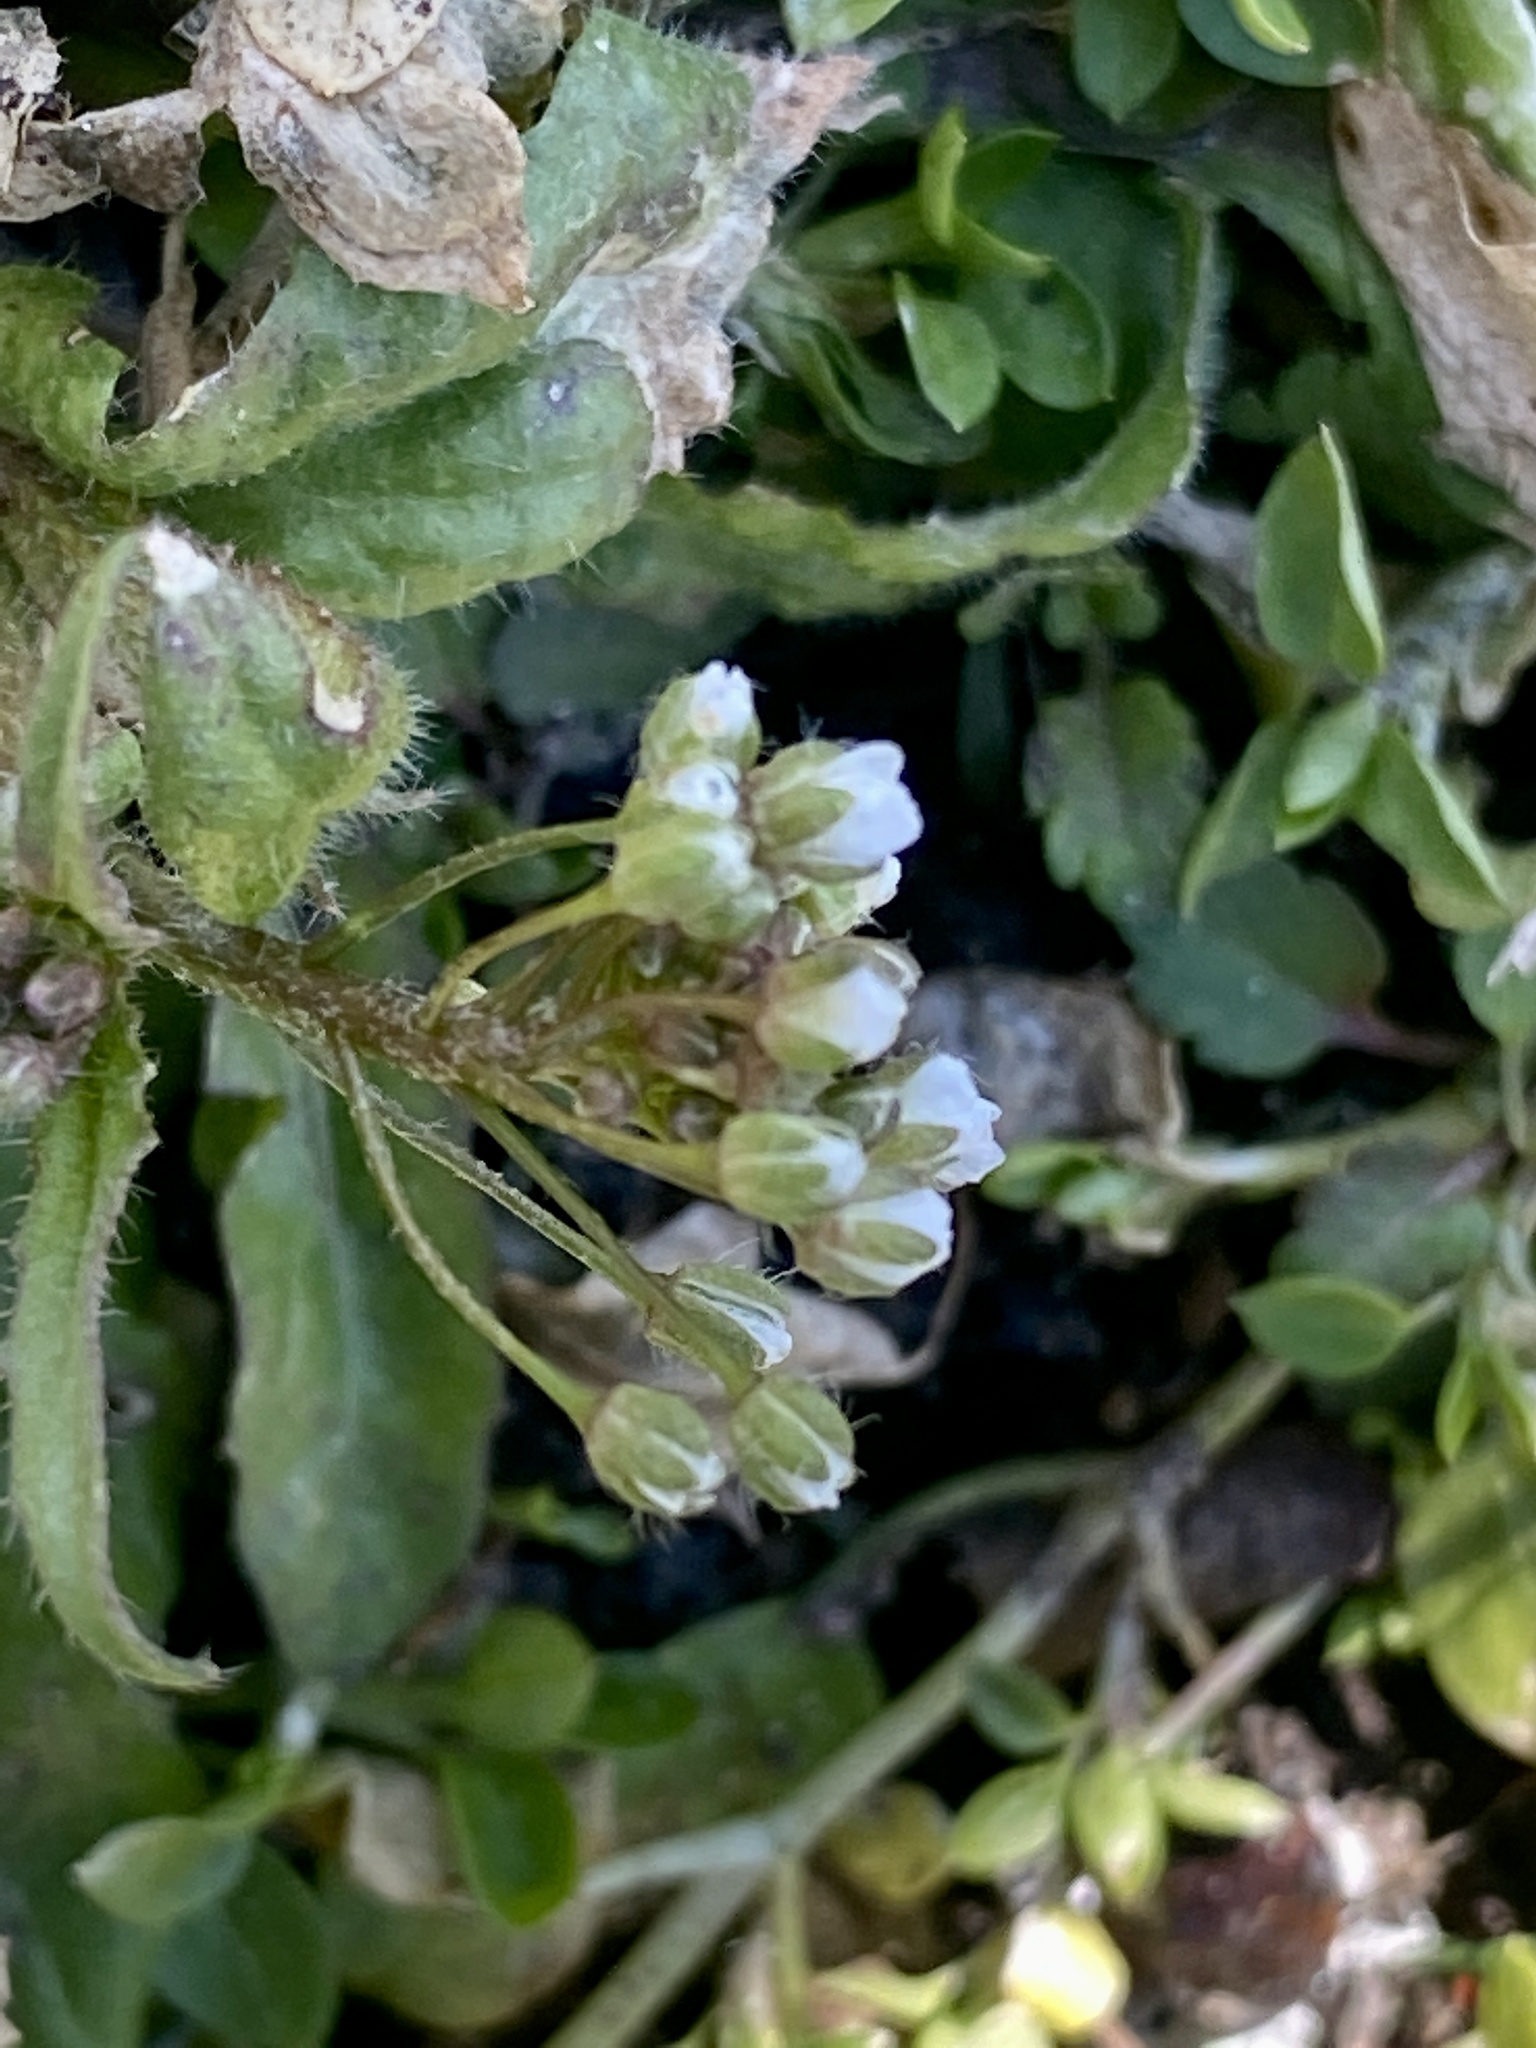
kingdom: Plantae
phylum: Tracheophyta
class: Magnoliopsida
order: Brassicales
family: Brassicaceae
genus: Capsella
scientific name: Capsella bursa-pastoris
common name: Shepherd's purse
